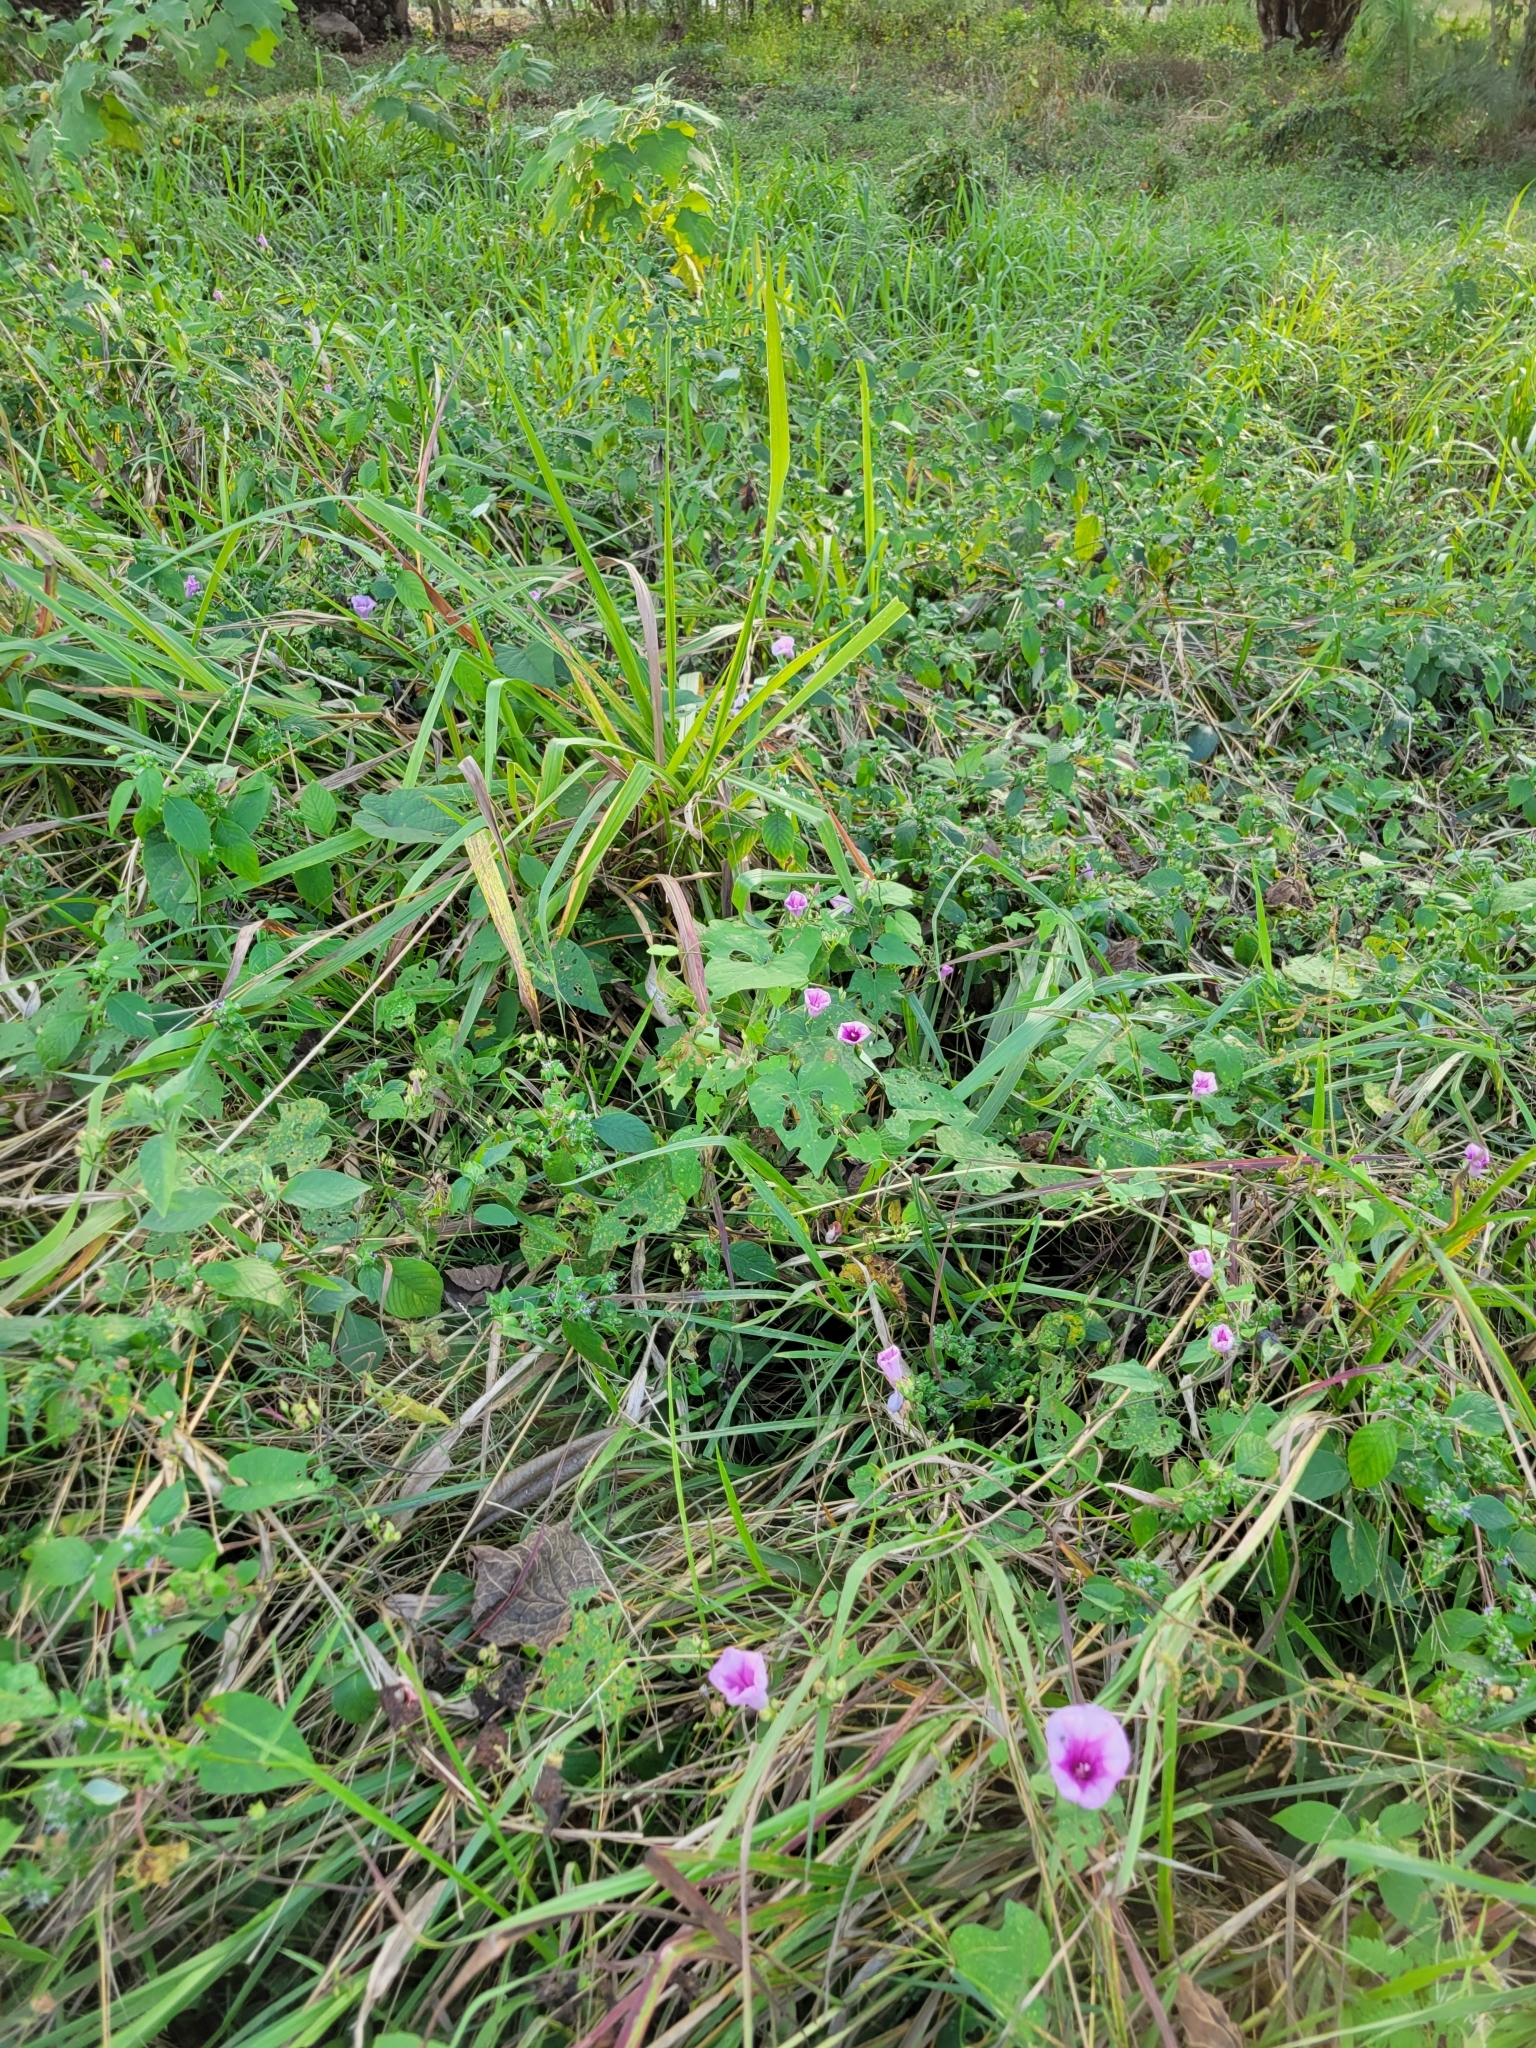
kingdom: Plantae
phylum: Tracheophyta
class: Magnoliopsida
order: Solanales
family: Convolvulaceae
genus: Ipomoea
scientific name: Ipomoea trifida
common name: Cotton morningglory
